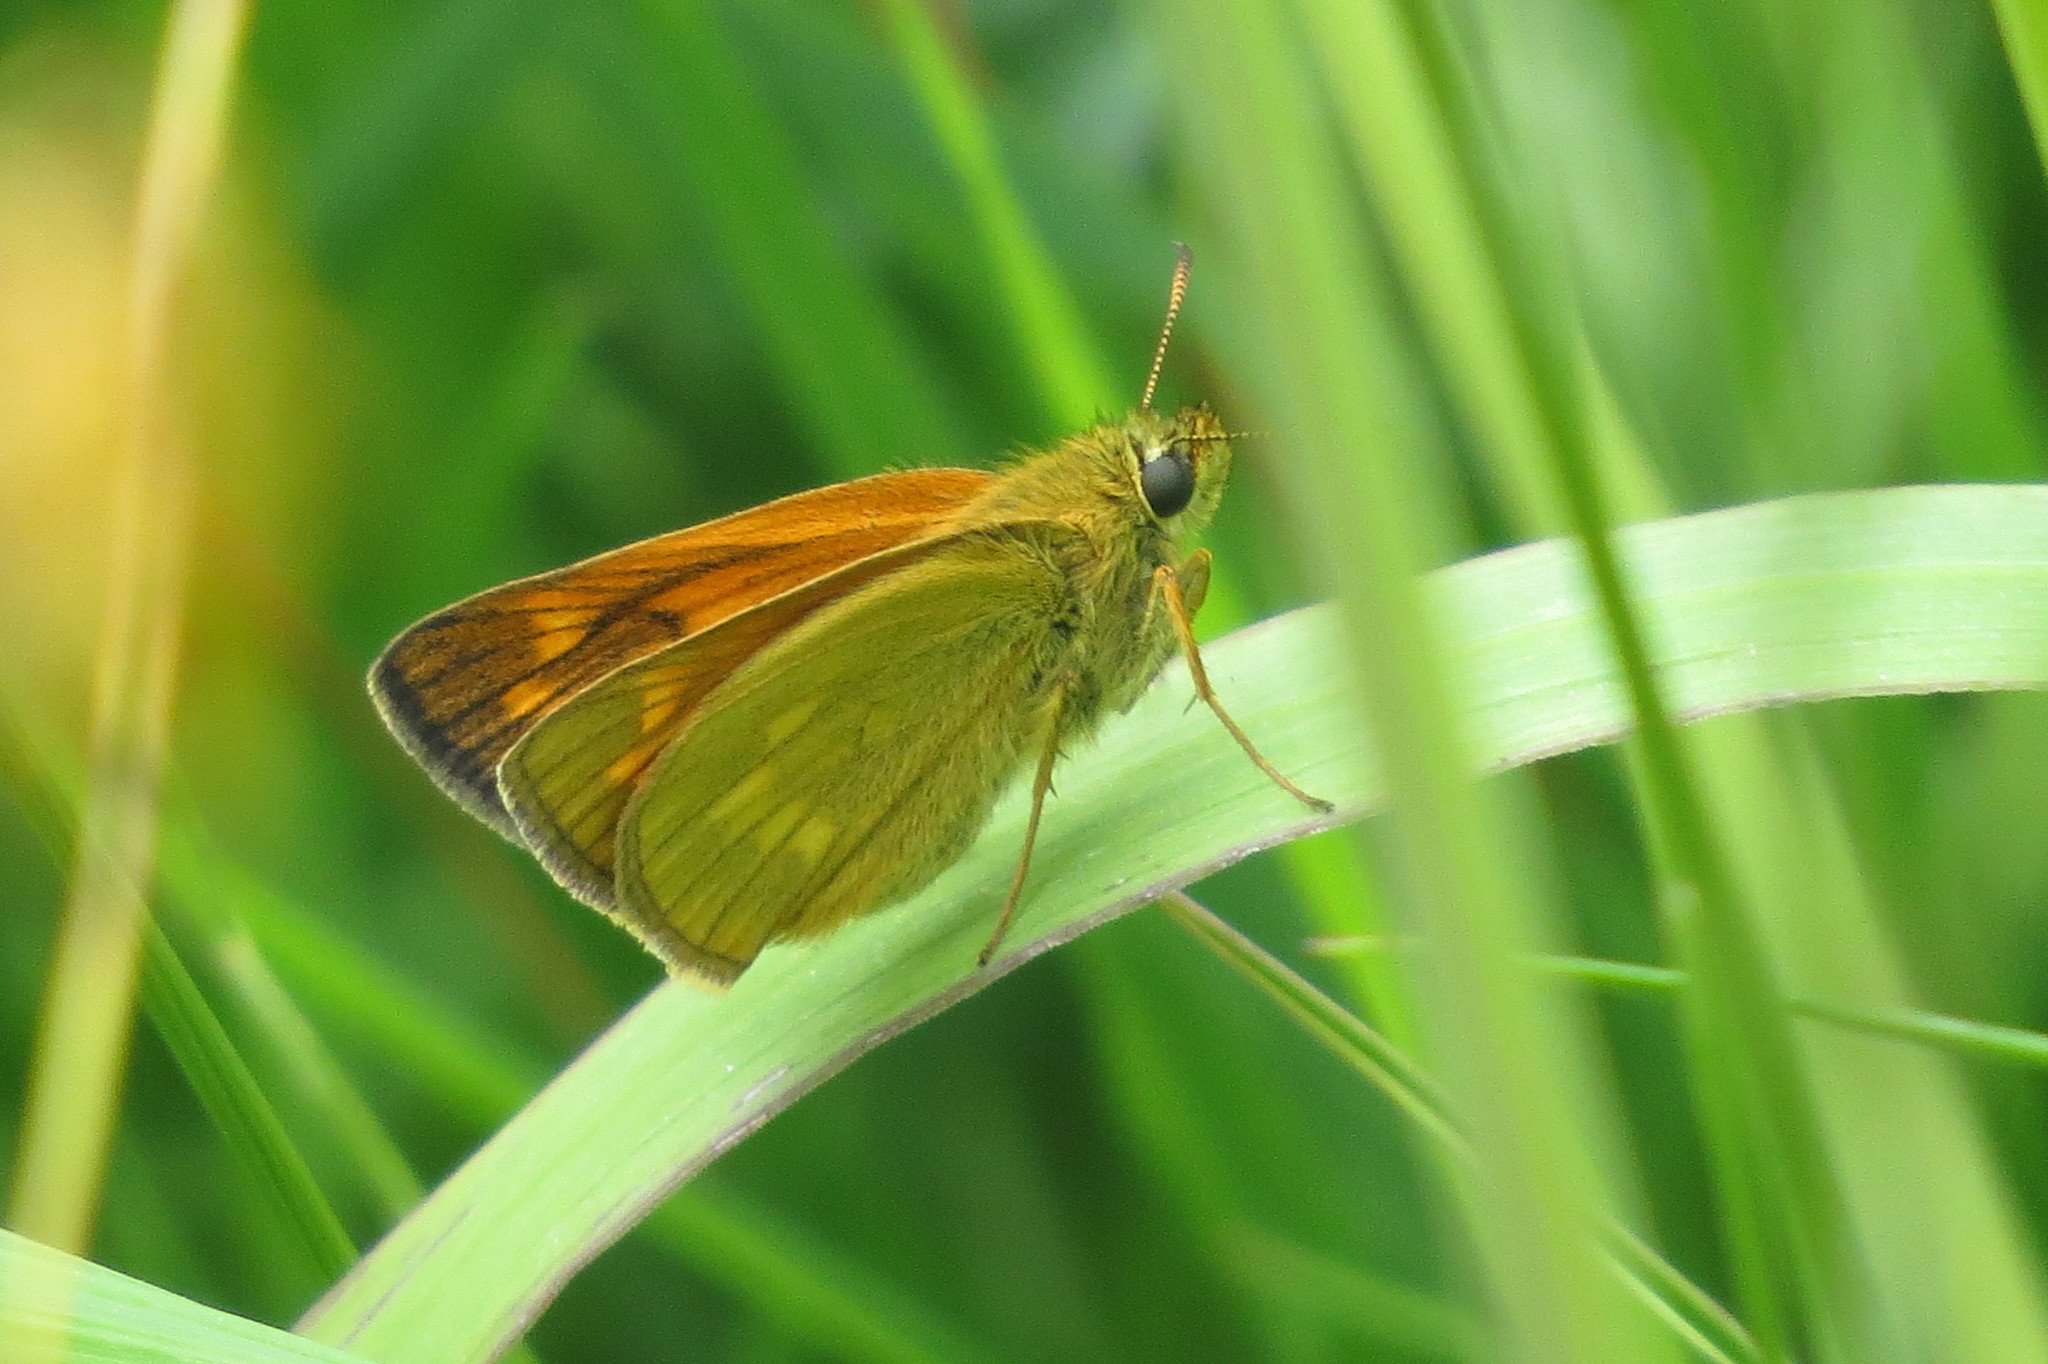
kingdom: Animalia
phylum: Arthropoda
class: Insecta
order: Lepidoptera
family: Hesperiidae
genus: Ochlodes
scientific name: Ochlodes venata
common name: Large skipper
